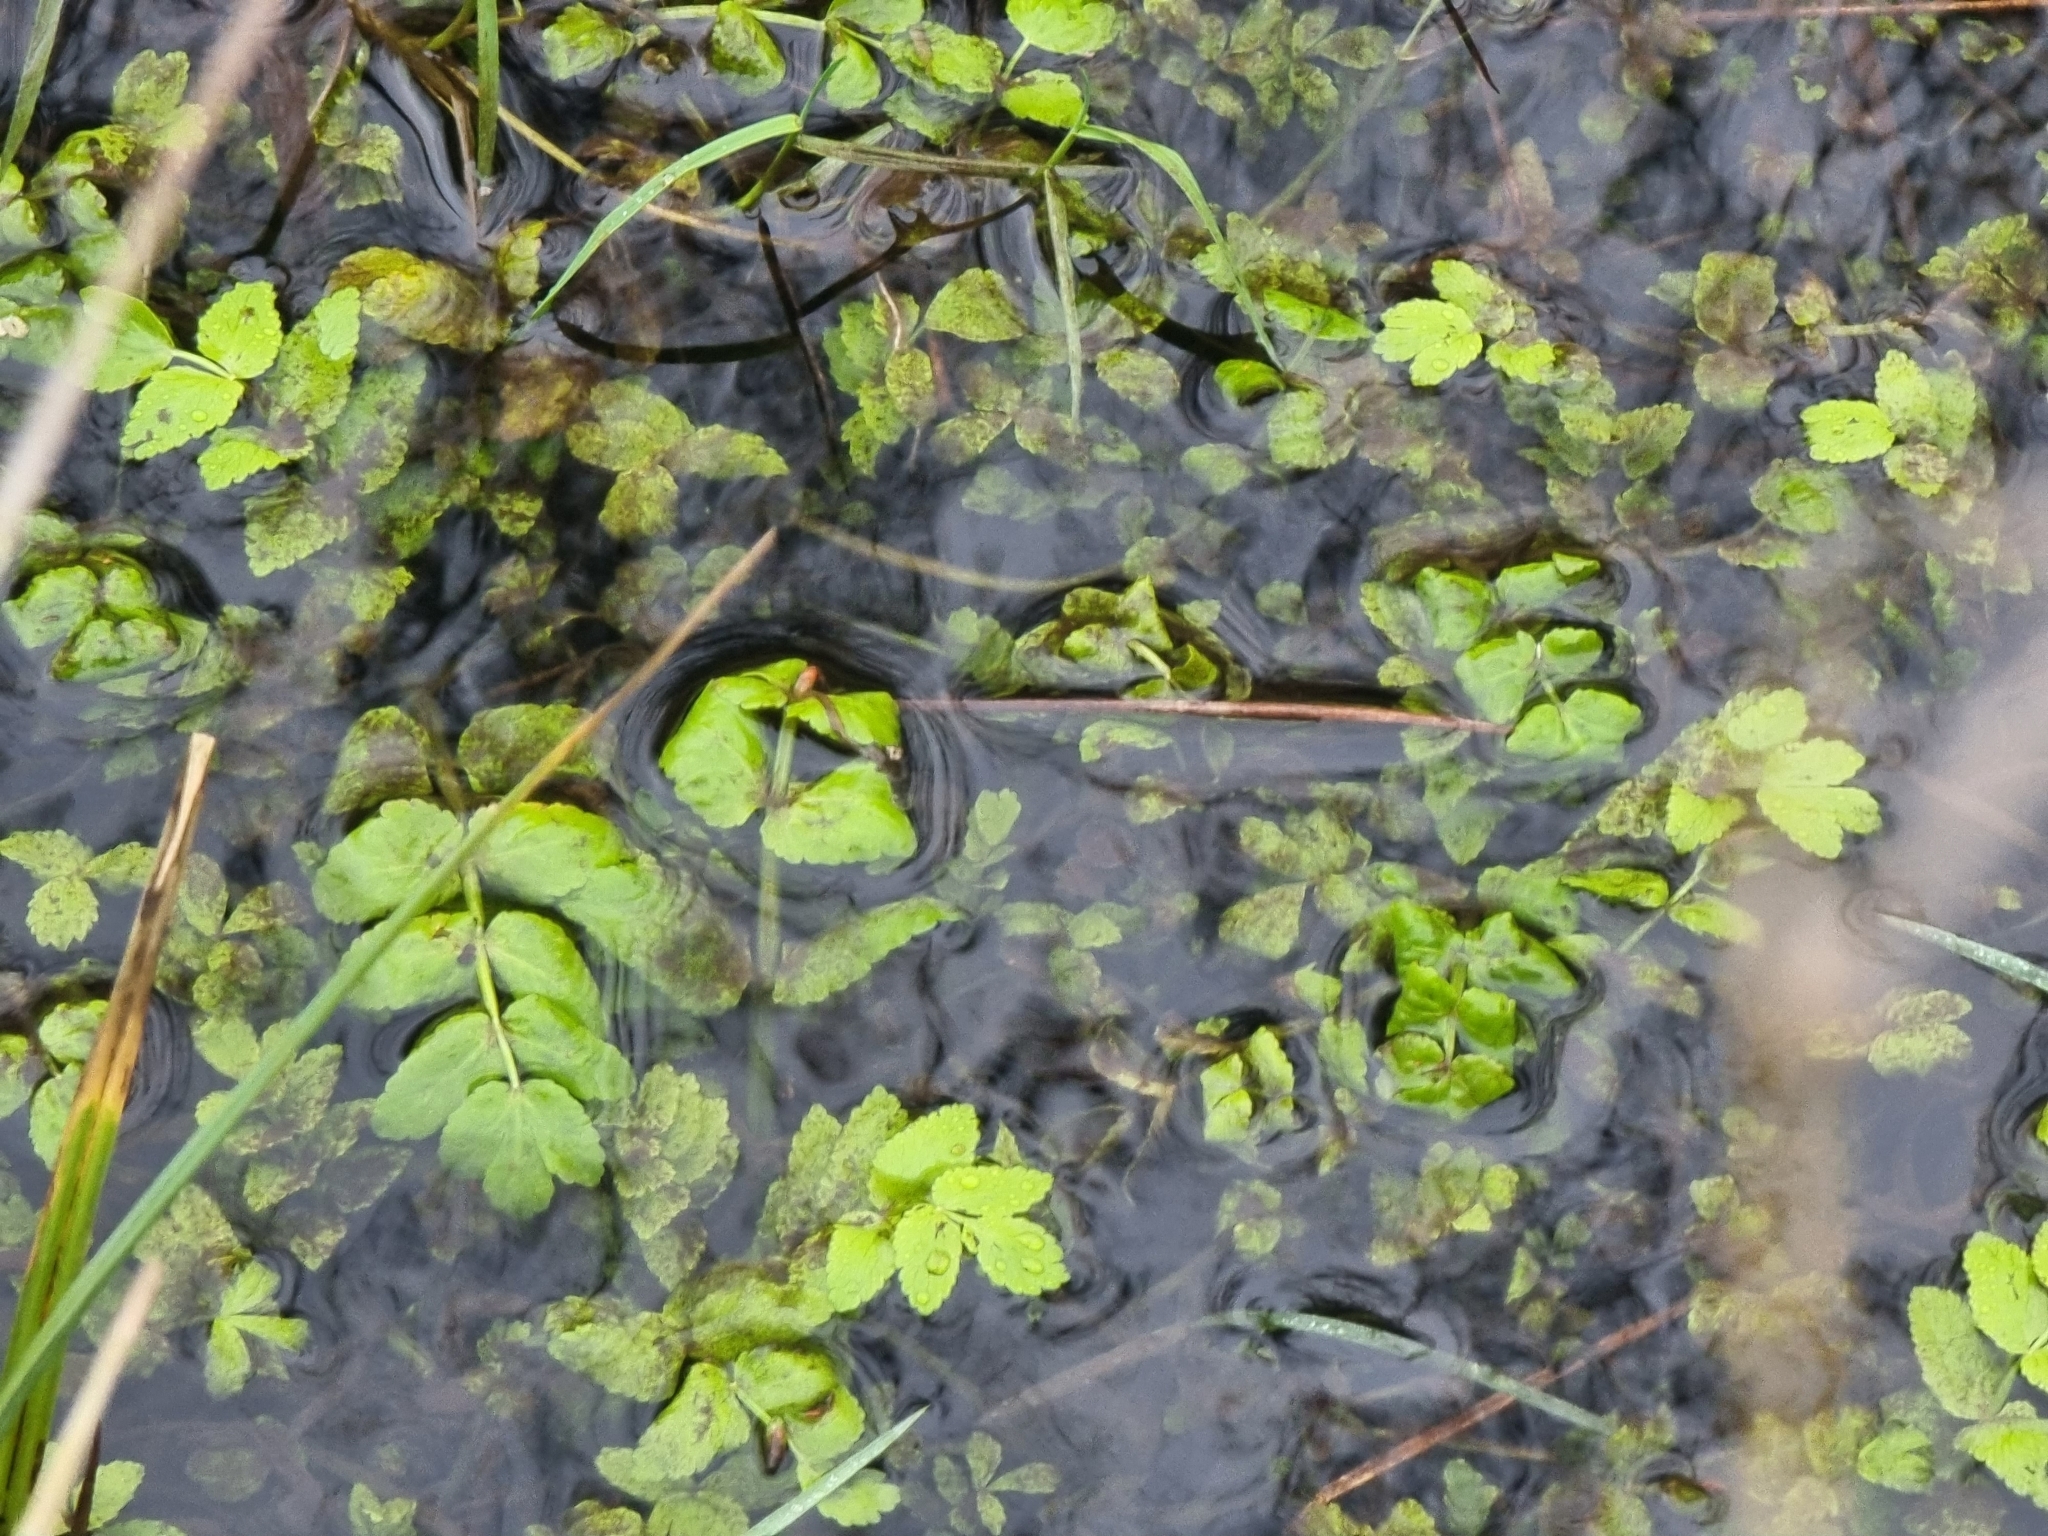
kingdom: Plantae
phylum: Tracheophyta
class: Magnoliopsida
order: Apiales
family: Apiaceae
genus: Helosciadium
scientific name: Helosciadium nodiflorum
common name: Fool's-watercress
